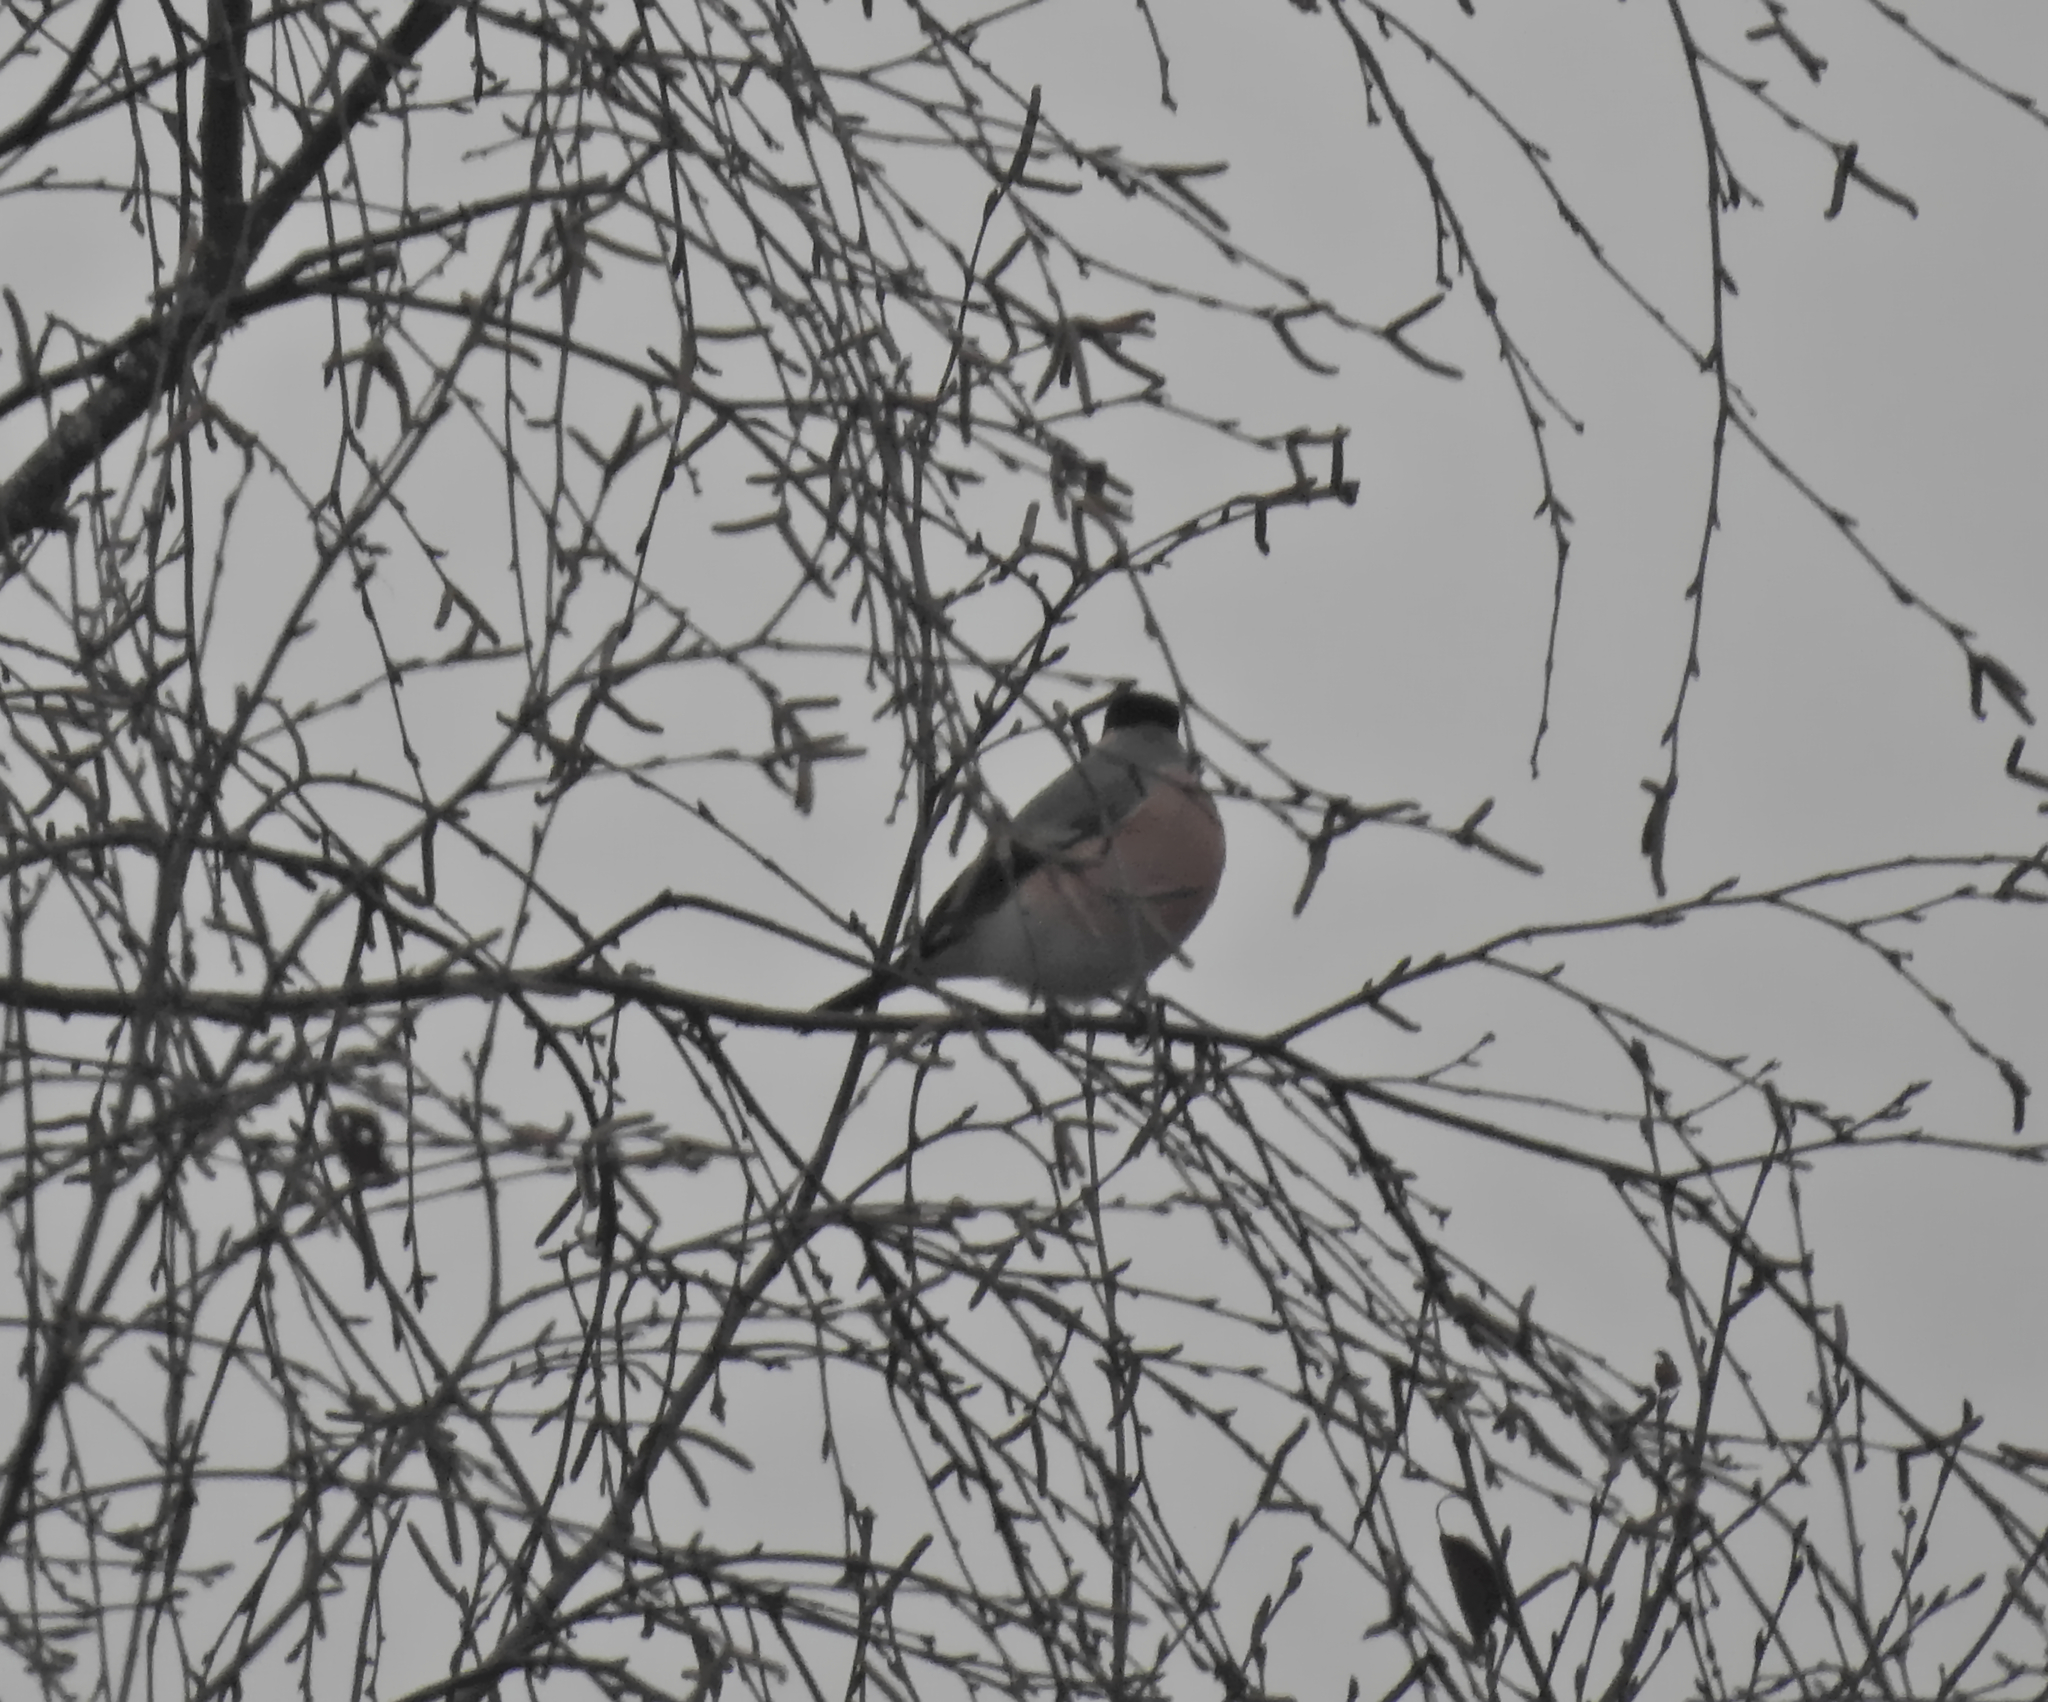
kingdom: Animalia
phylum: Chordata
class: Aves
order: Passeriformes
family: Fringillidae
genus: Pyrrhula
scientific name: Pyrrhula pyrrhula
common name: Eurasian bullfinch
